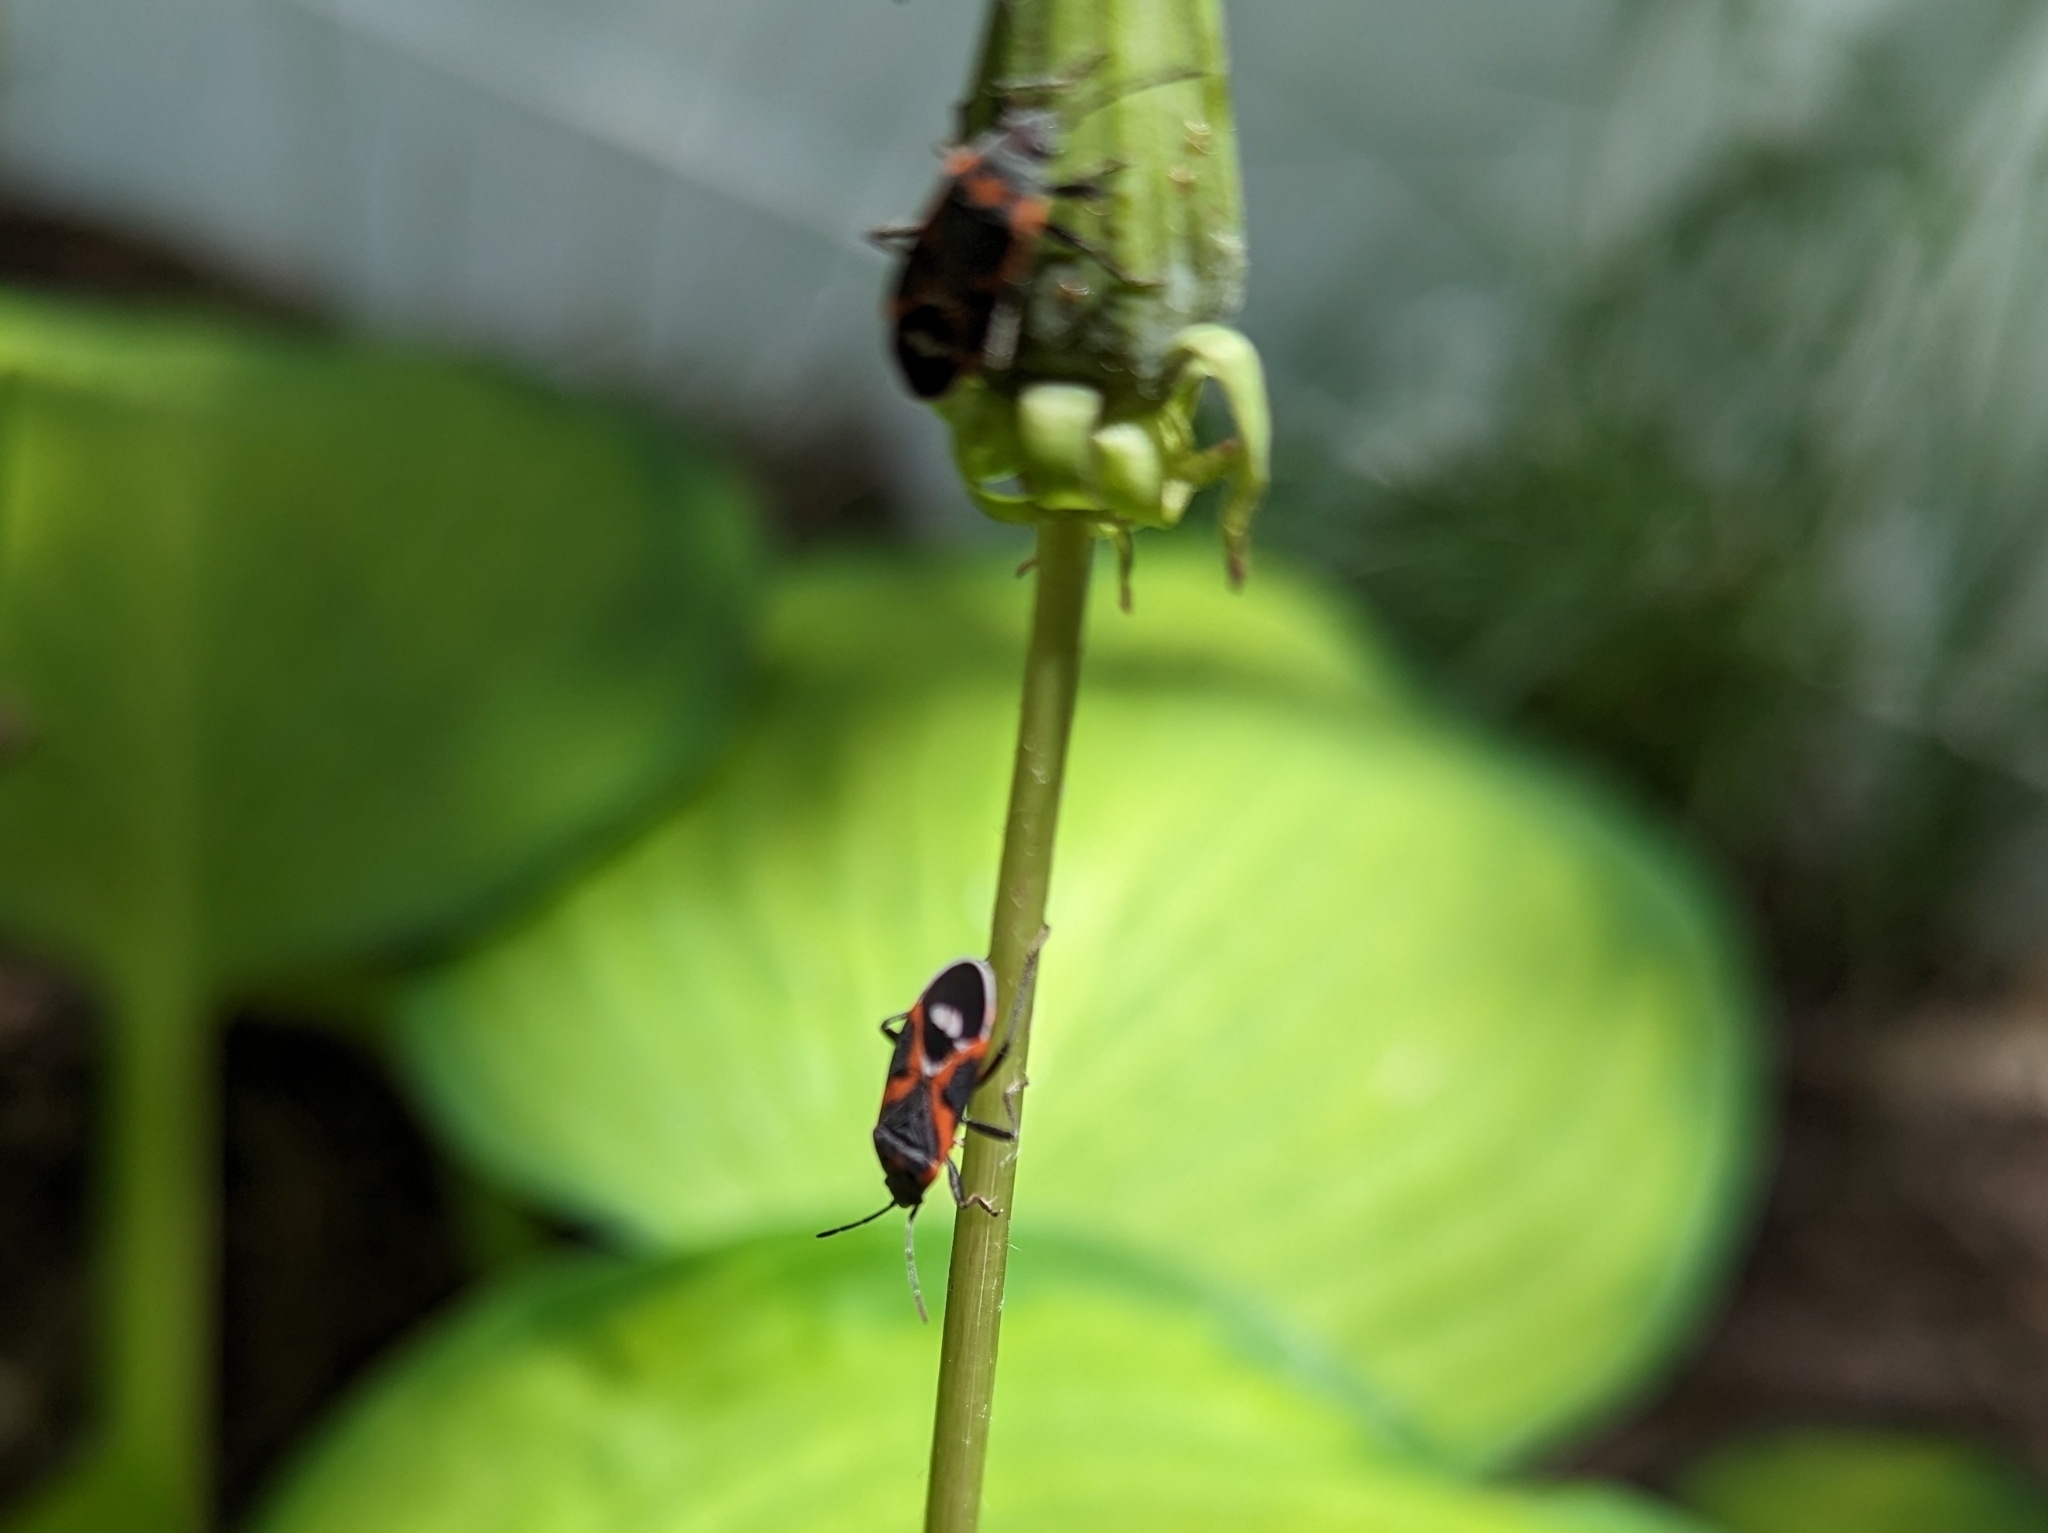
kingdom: Animalia
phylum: Arthropoda
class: Insecta
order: Hemiptera
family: Lygaeidae
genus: Lygaeus
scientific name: Lygaeus kalmii
